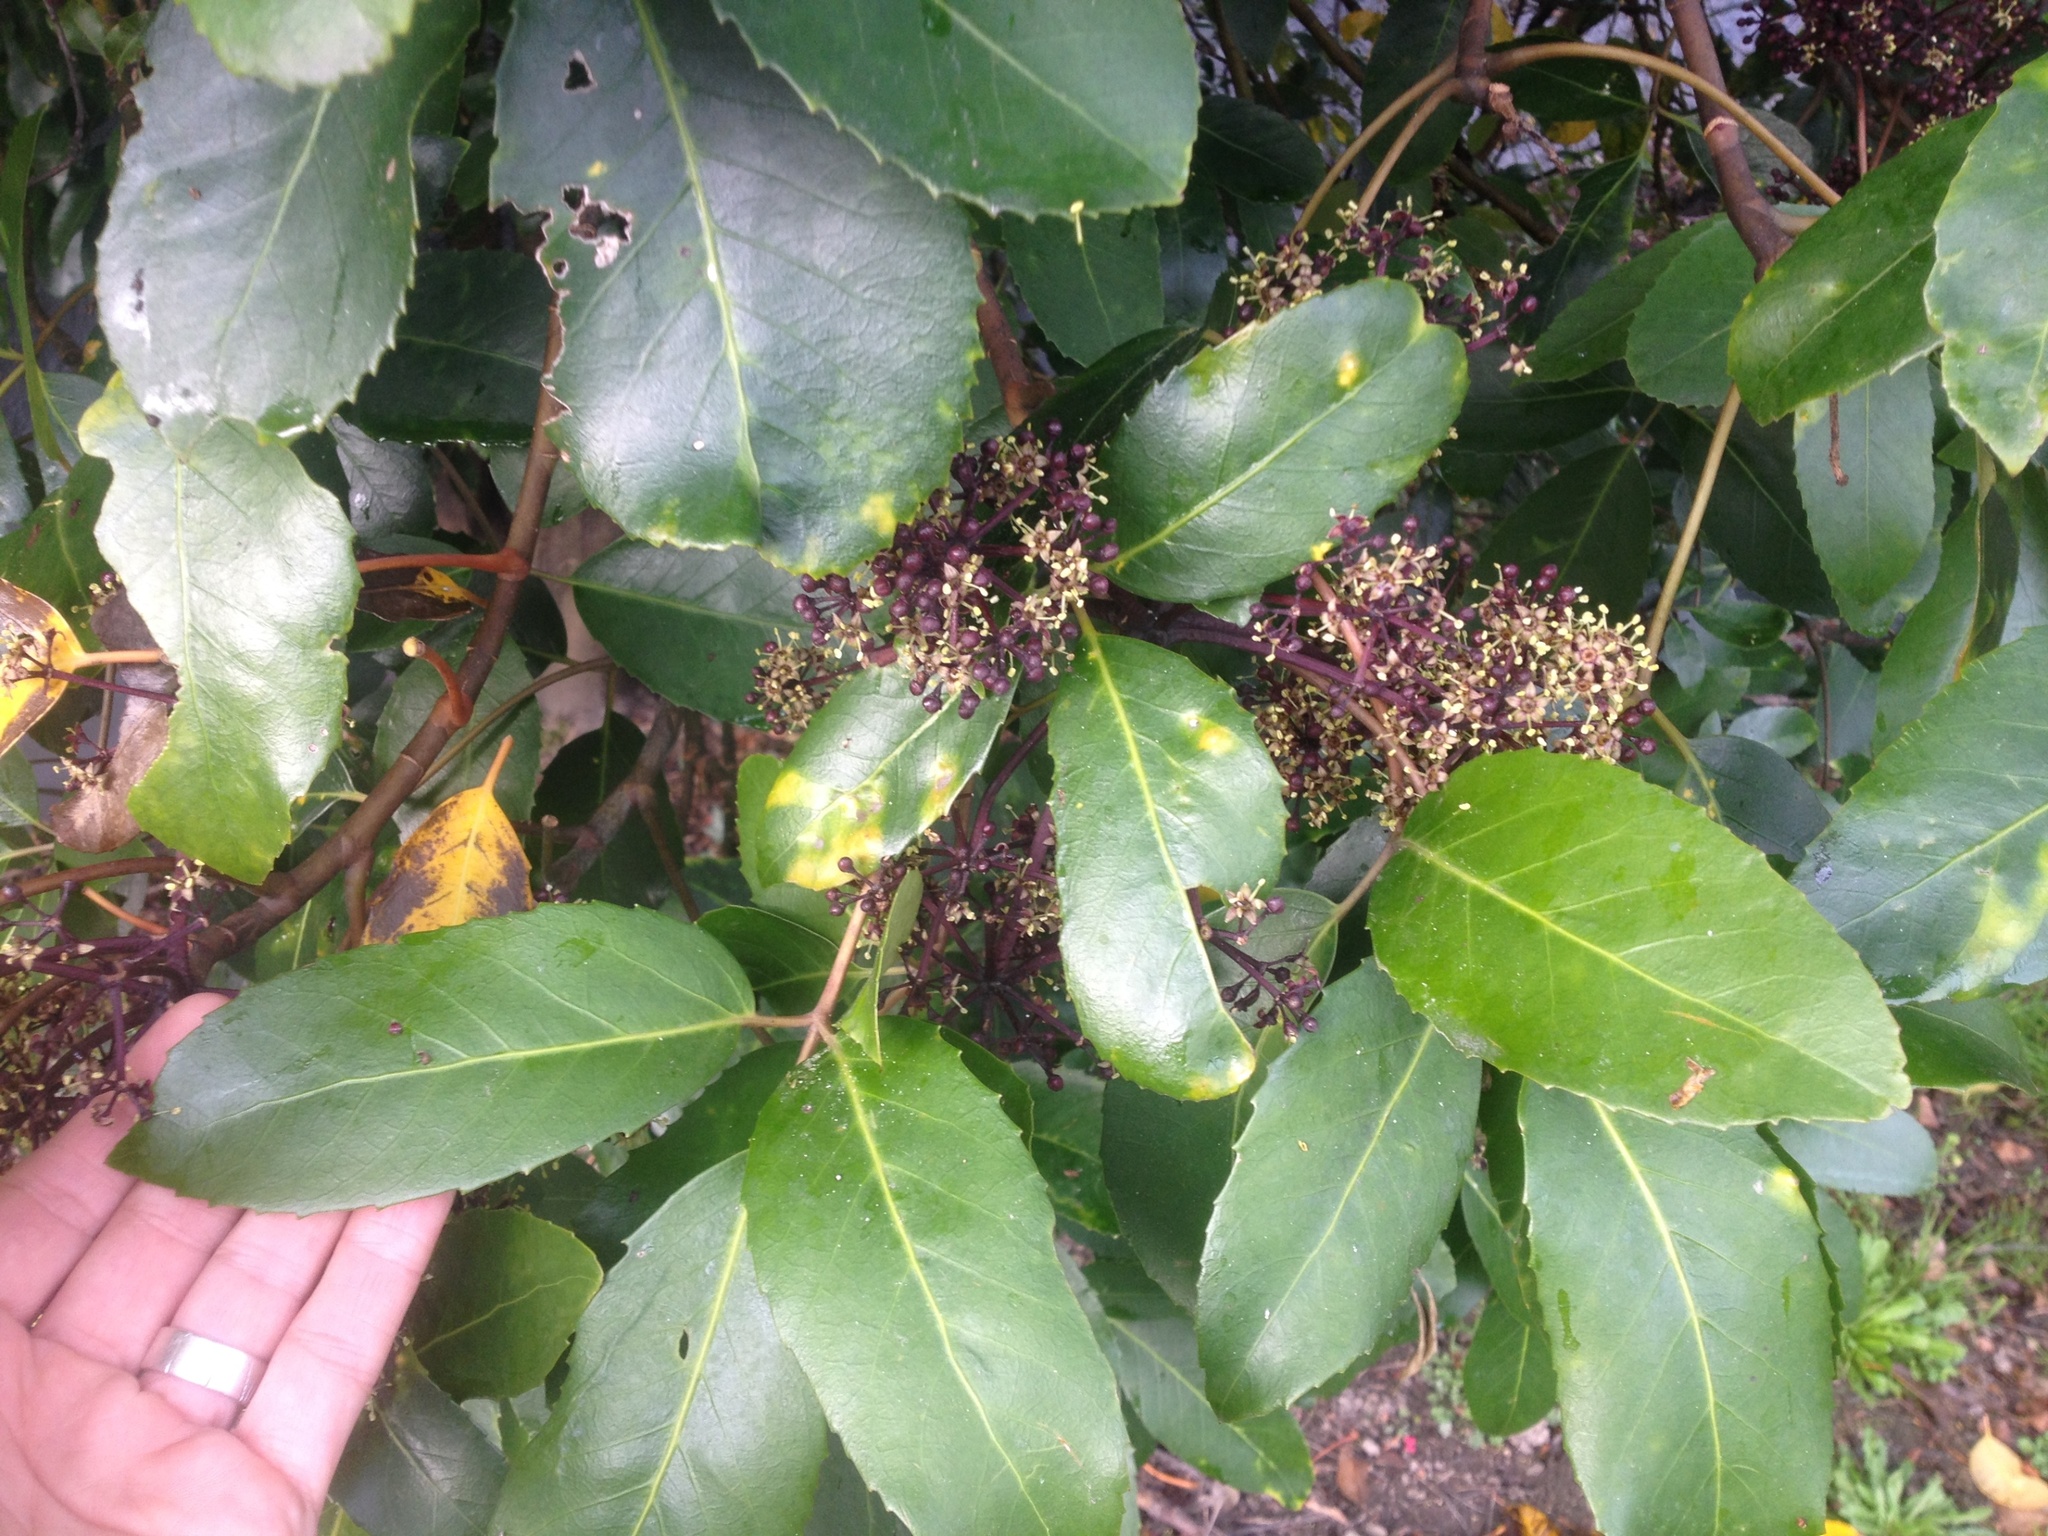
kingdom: Plantae
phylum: Tracheophyta
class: Magnoliopsida
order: Apiales
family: Araliaceae
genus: Neopanax
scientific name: Neopanax arboreus
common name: Five-fingers
